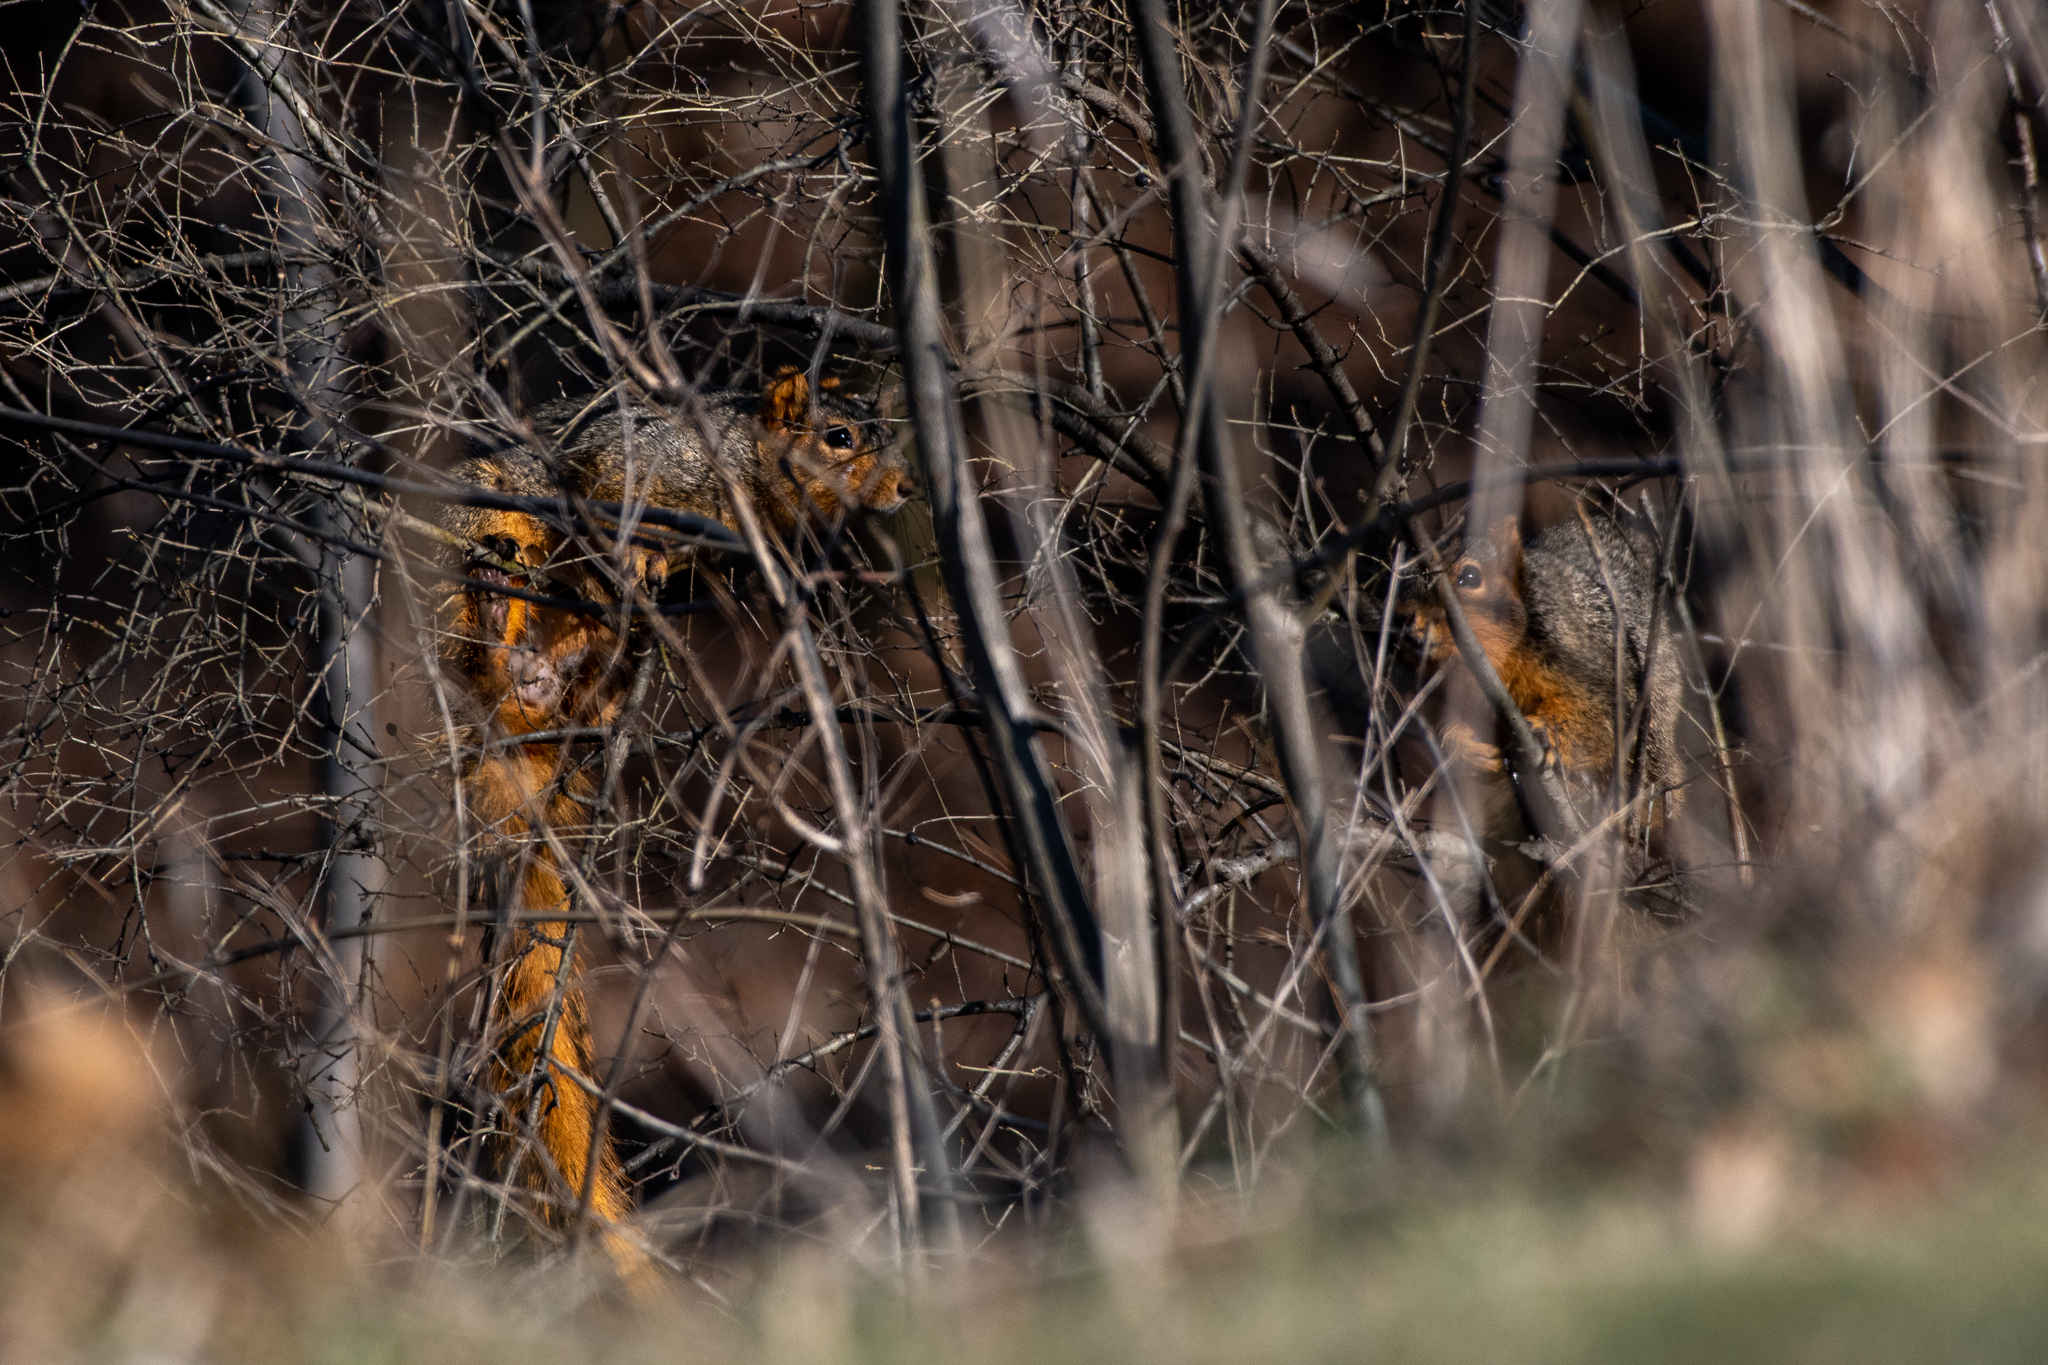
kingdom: Animalia
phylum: Chordata
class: Mammalia
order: Rodentia
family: Sciuridae
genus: Sciurus
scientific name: Sciurus niger
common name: Fox squirrel
